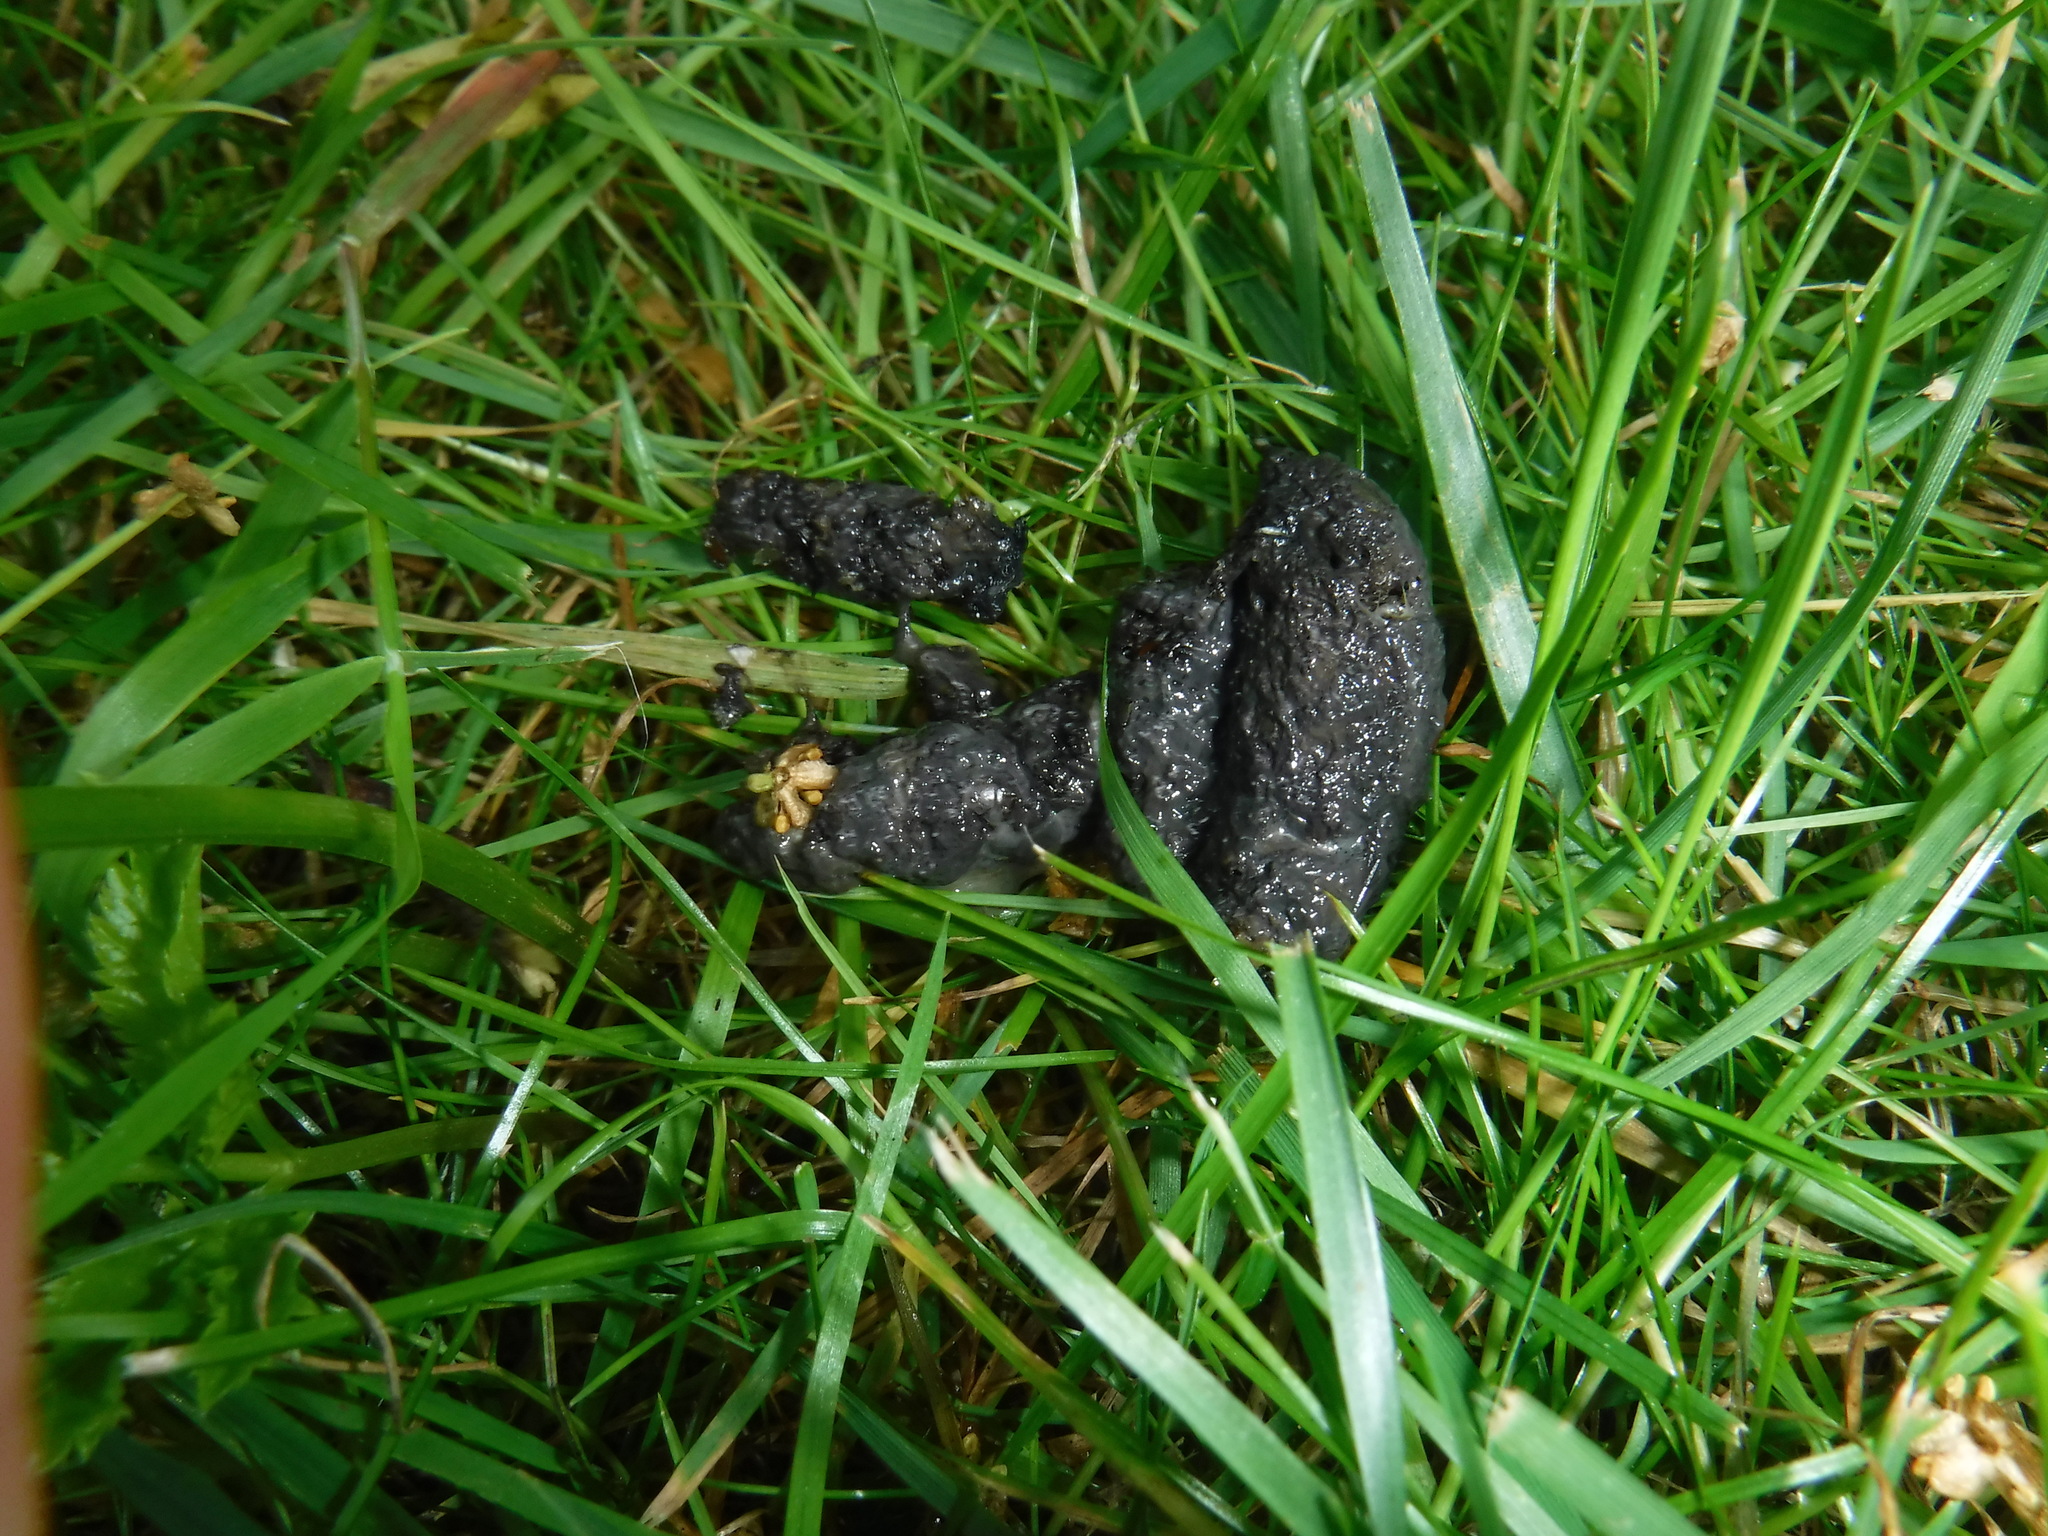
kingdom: Animalia
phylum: Chordata
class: Mammalia
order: Erinaceomorpha
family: Erinaceidae
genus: Erinaceus
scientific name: Erinaceus europaeus
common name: West european hedgehog
